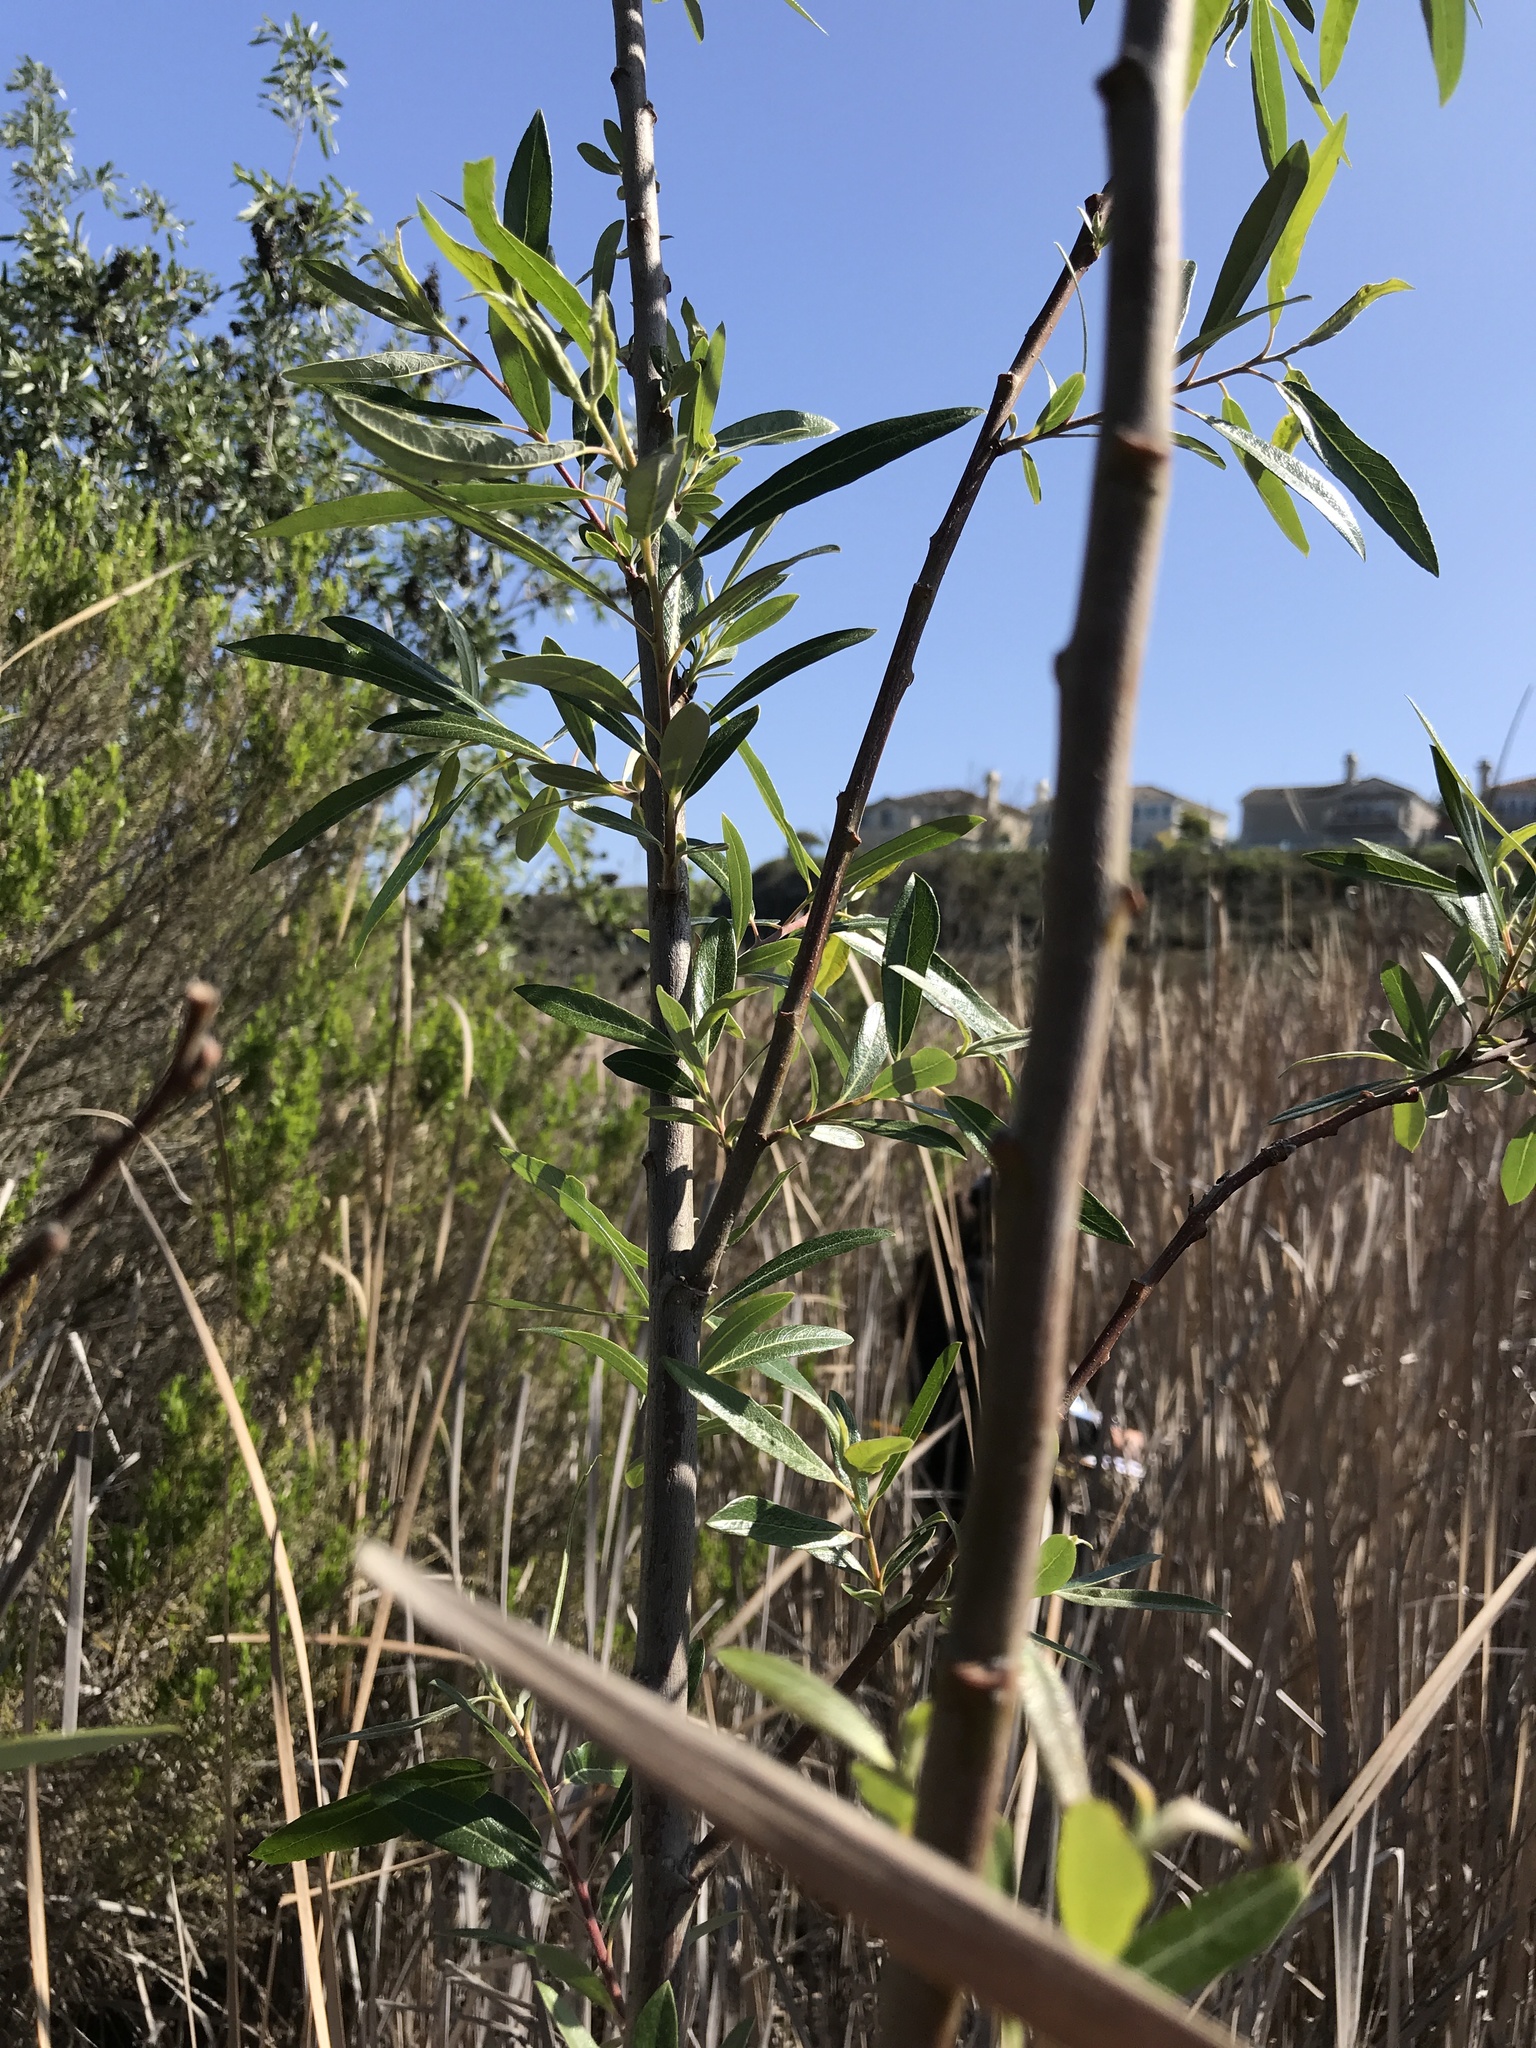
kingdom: Plantae
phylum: Tracheophyta
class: Magnoliopsida
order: Malpighiales
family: Salicaceae
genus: Salix
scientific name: Salix lasiolepis
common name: Arroyo willow
